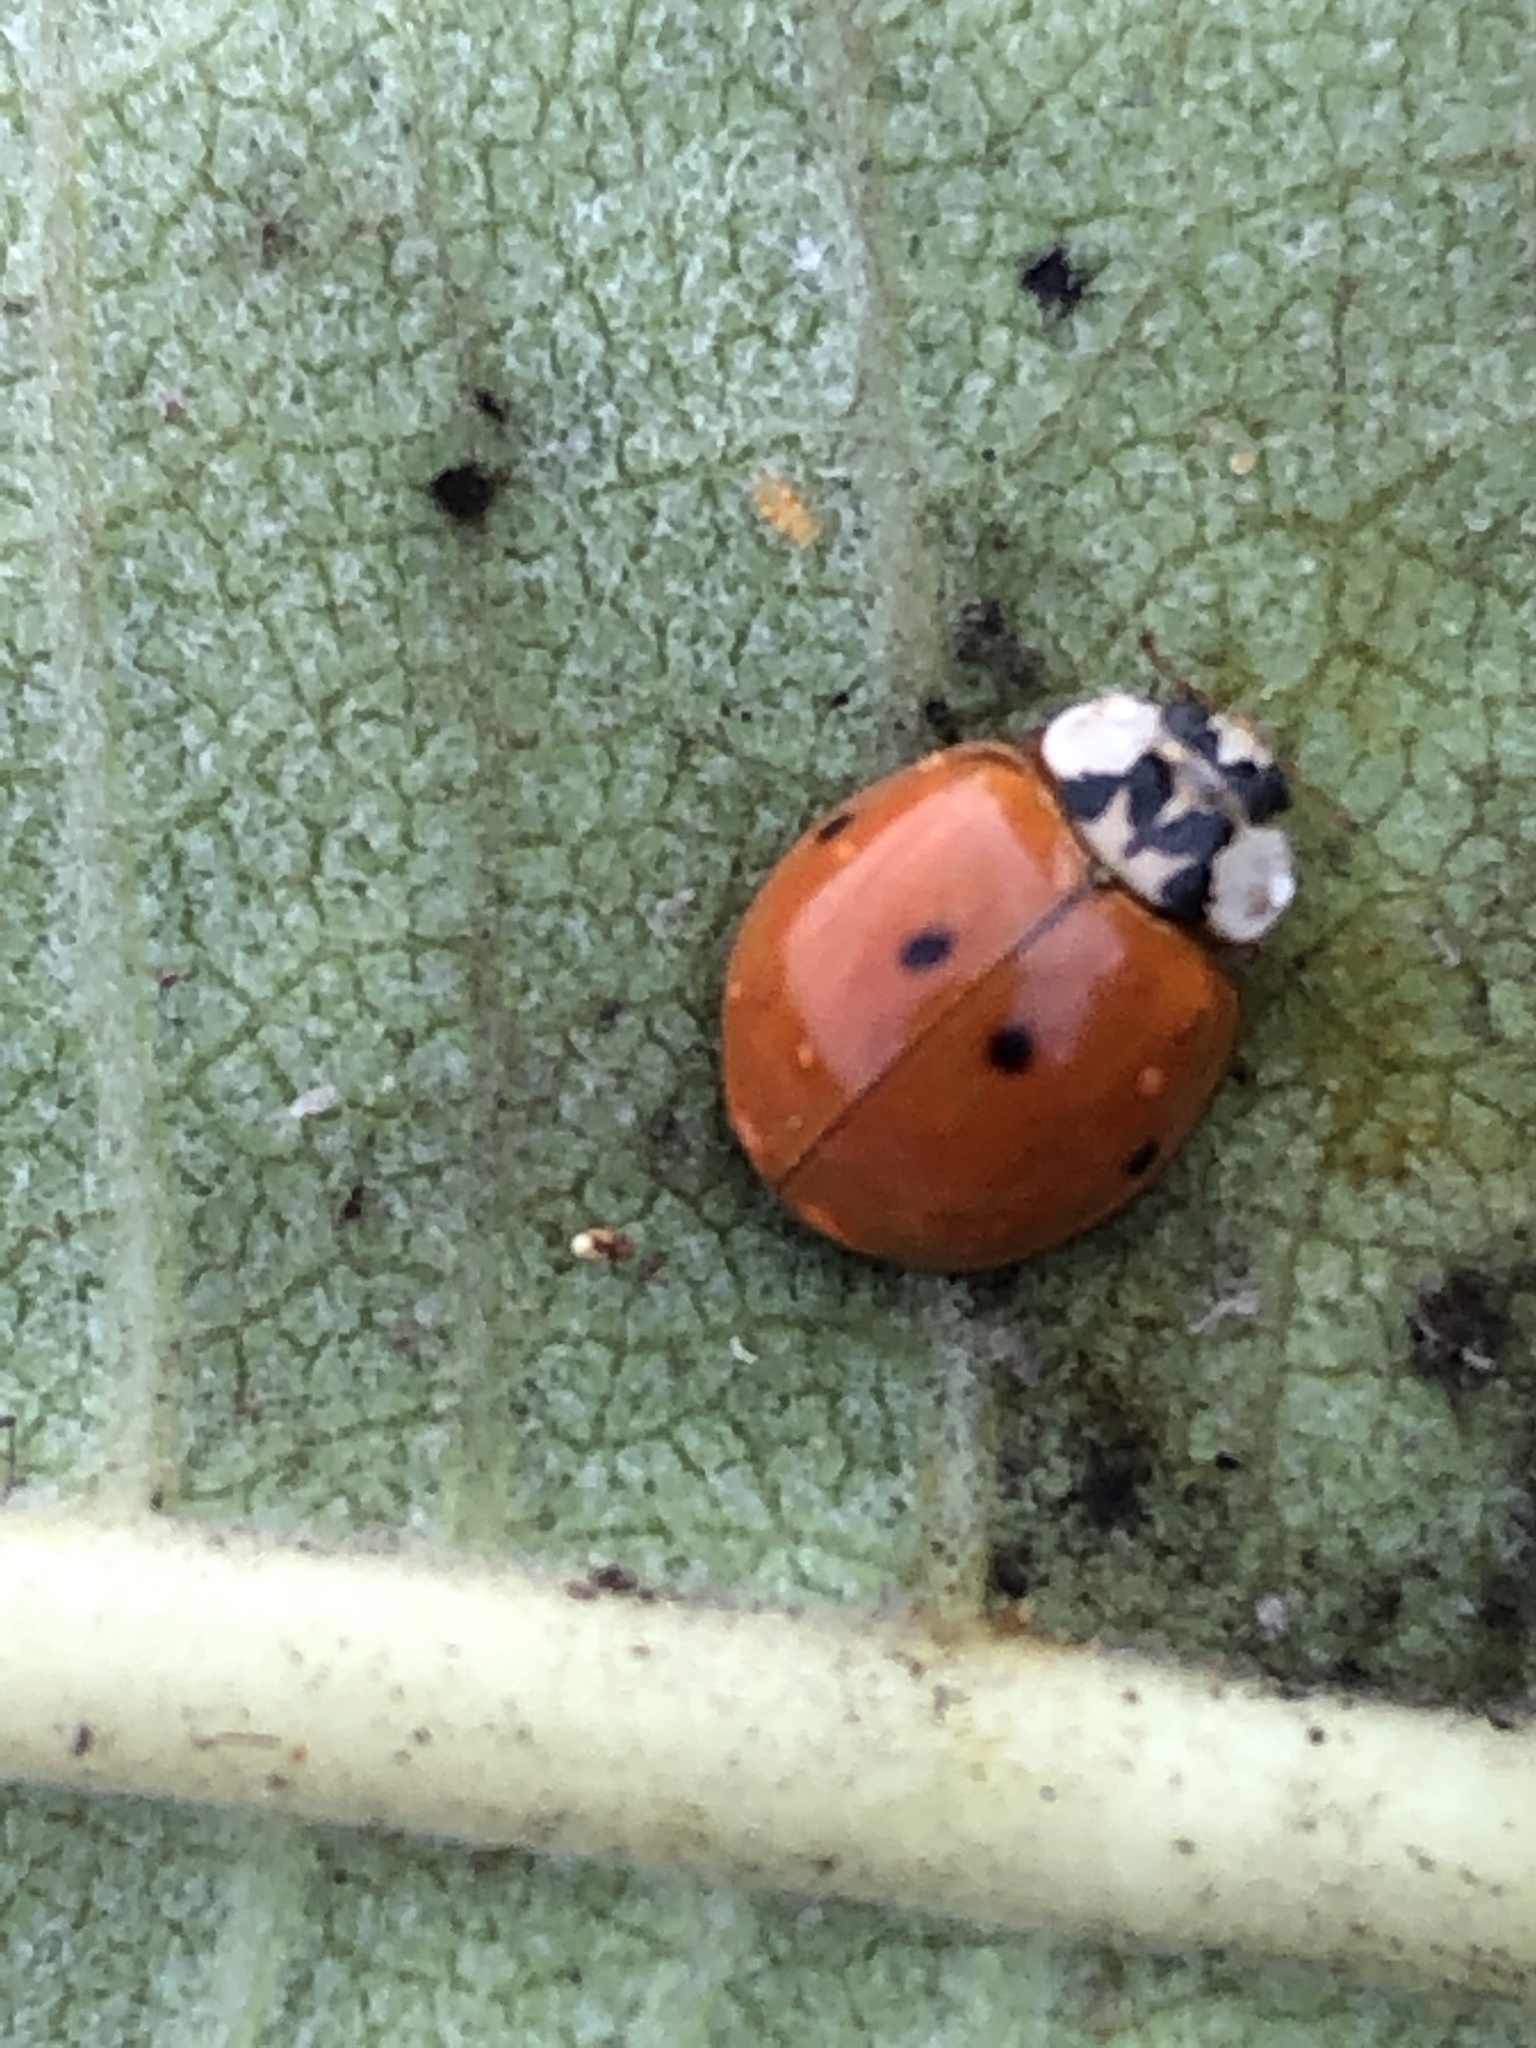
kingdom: Animalia
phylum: Arthropoda
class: Insecta
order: Coleoptera
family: Coccinellidae
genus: Harmonia
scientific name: Harmonia axyridis
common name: Harlequin ladybird
